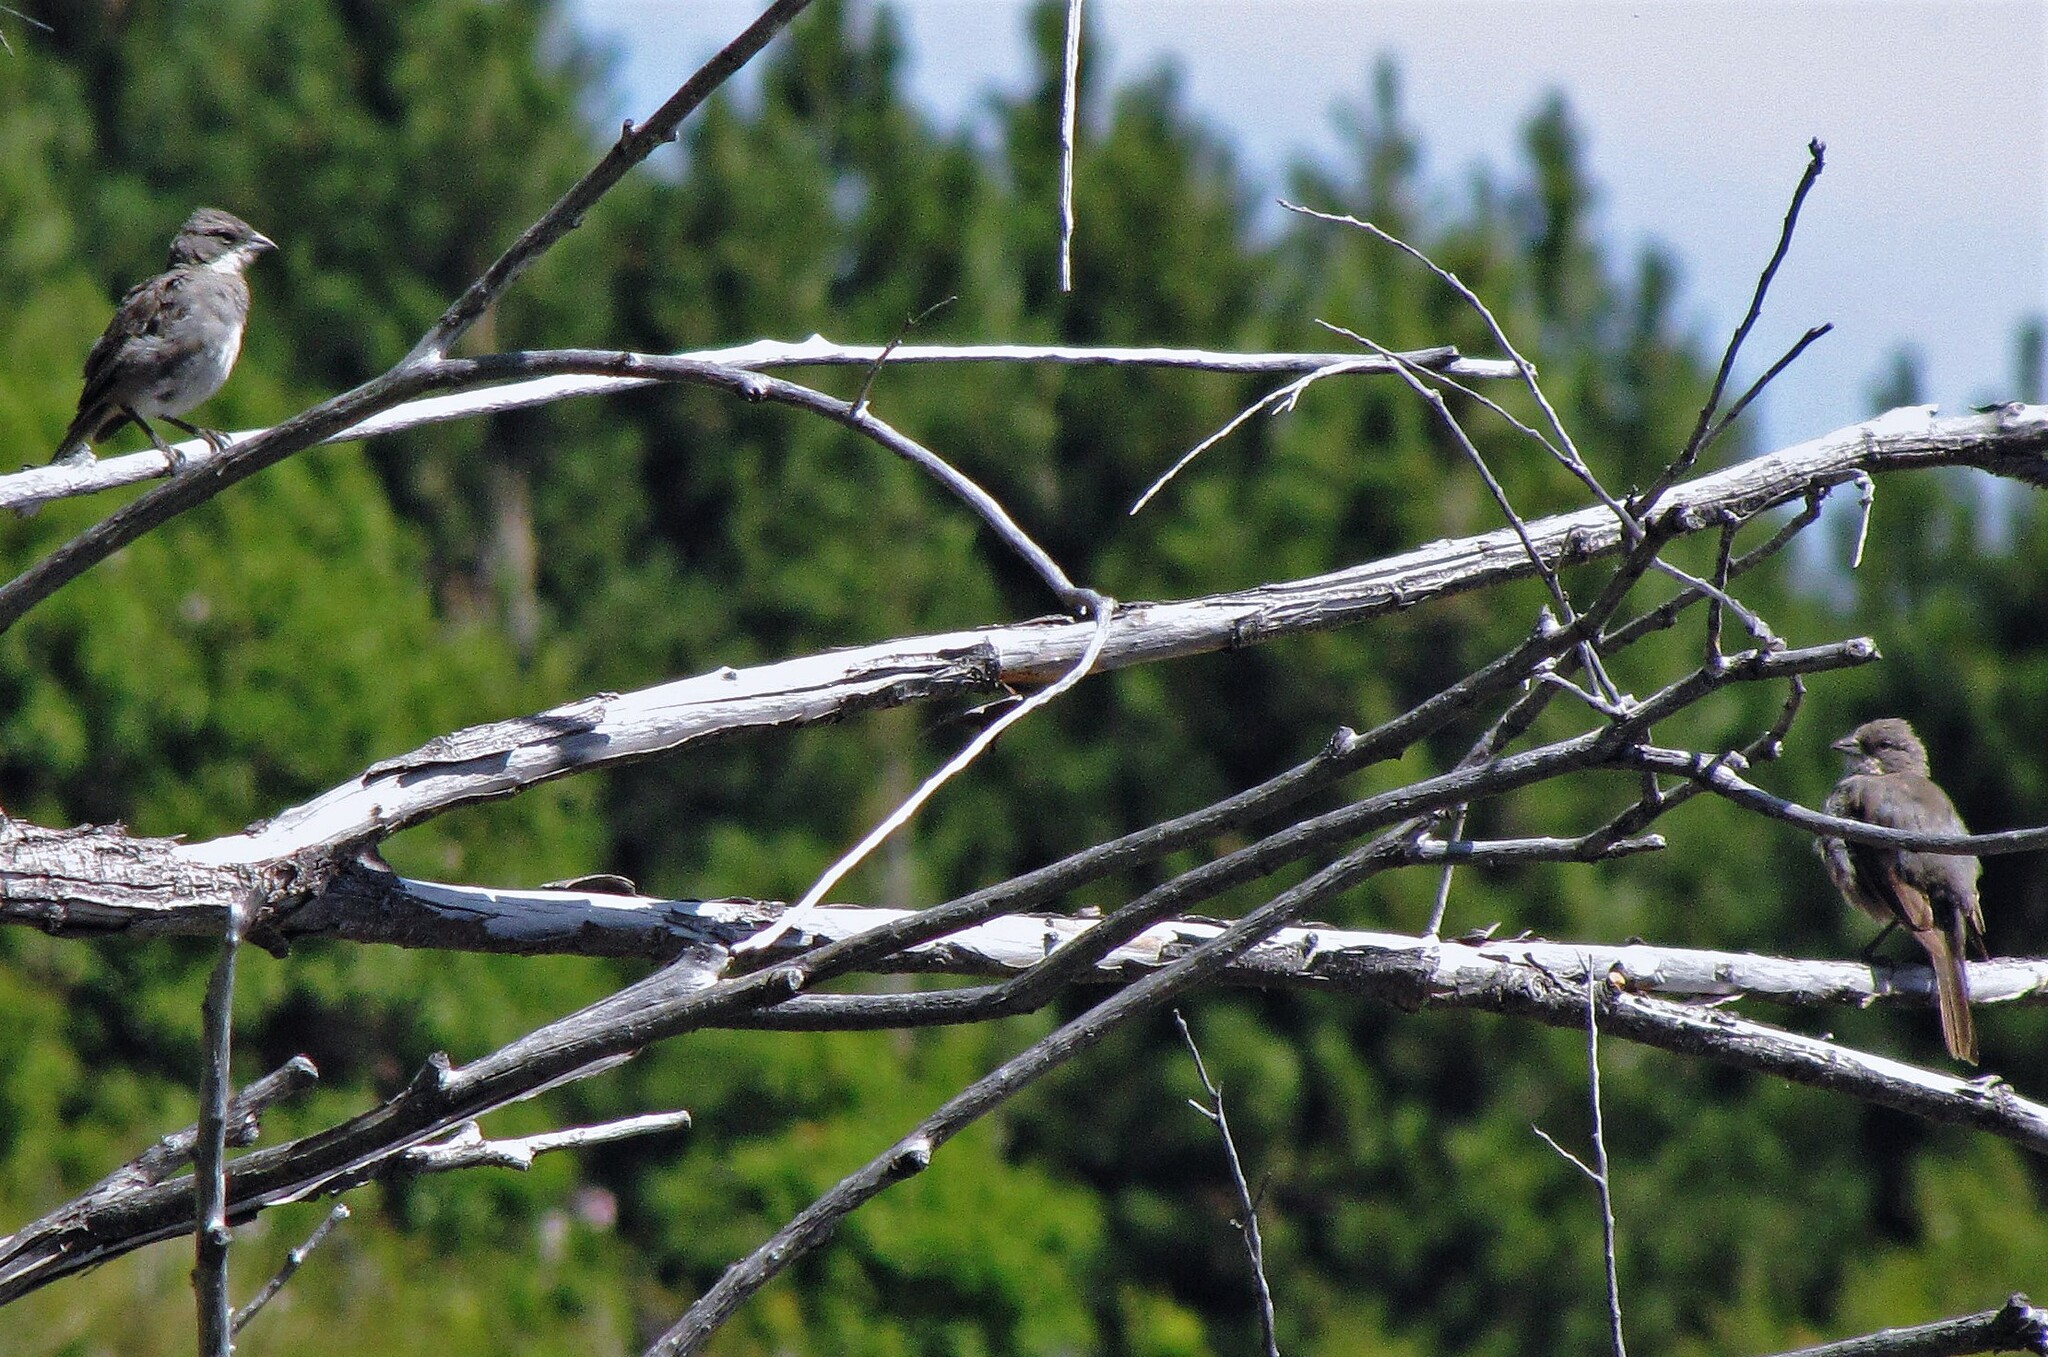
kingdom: Animalia
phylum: Chordata
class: Aves
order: Passeriformes
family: Thraupidae
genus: Diuca
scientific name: Diuca diuca
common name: Common diuca finch
